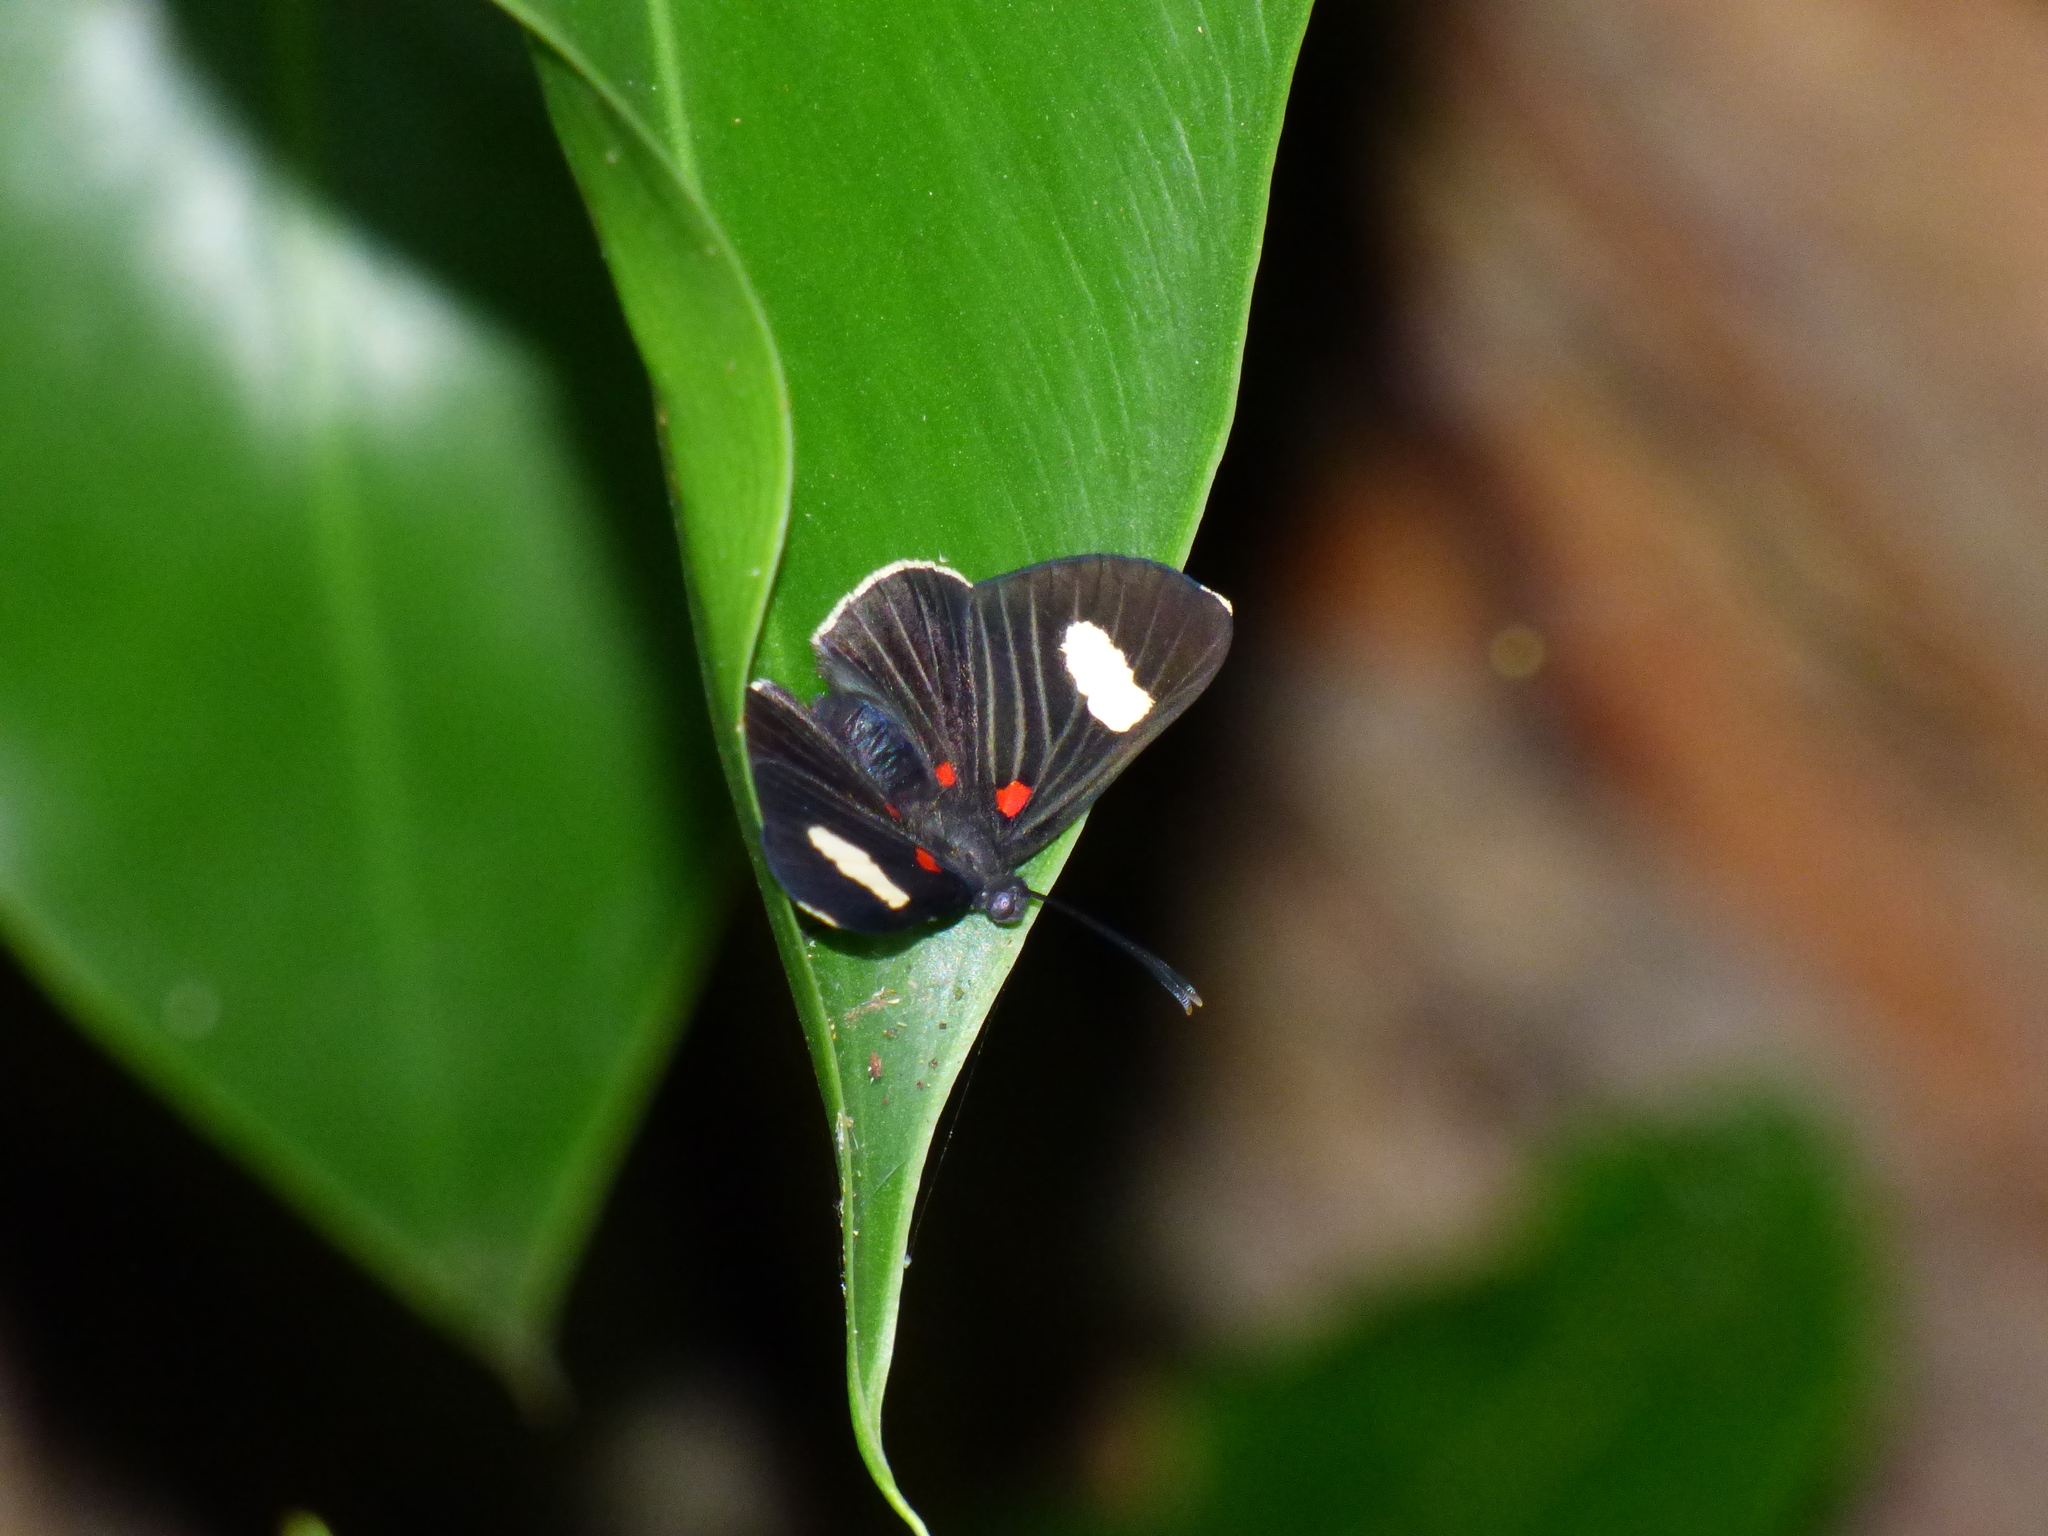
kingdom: Animalia
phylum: Arthropoda
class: Insecta
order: Lepidoptera
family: Lycaenidae
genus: Melanis
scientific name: Melanis aegates
